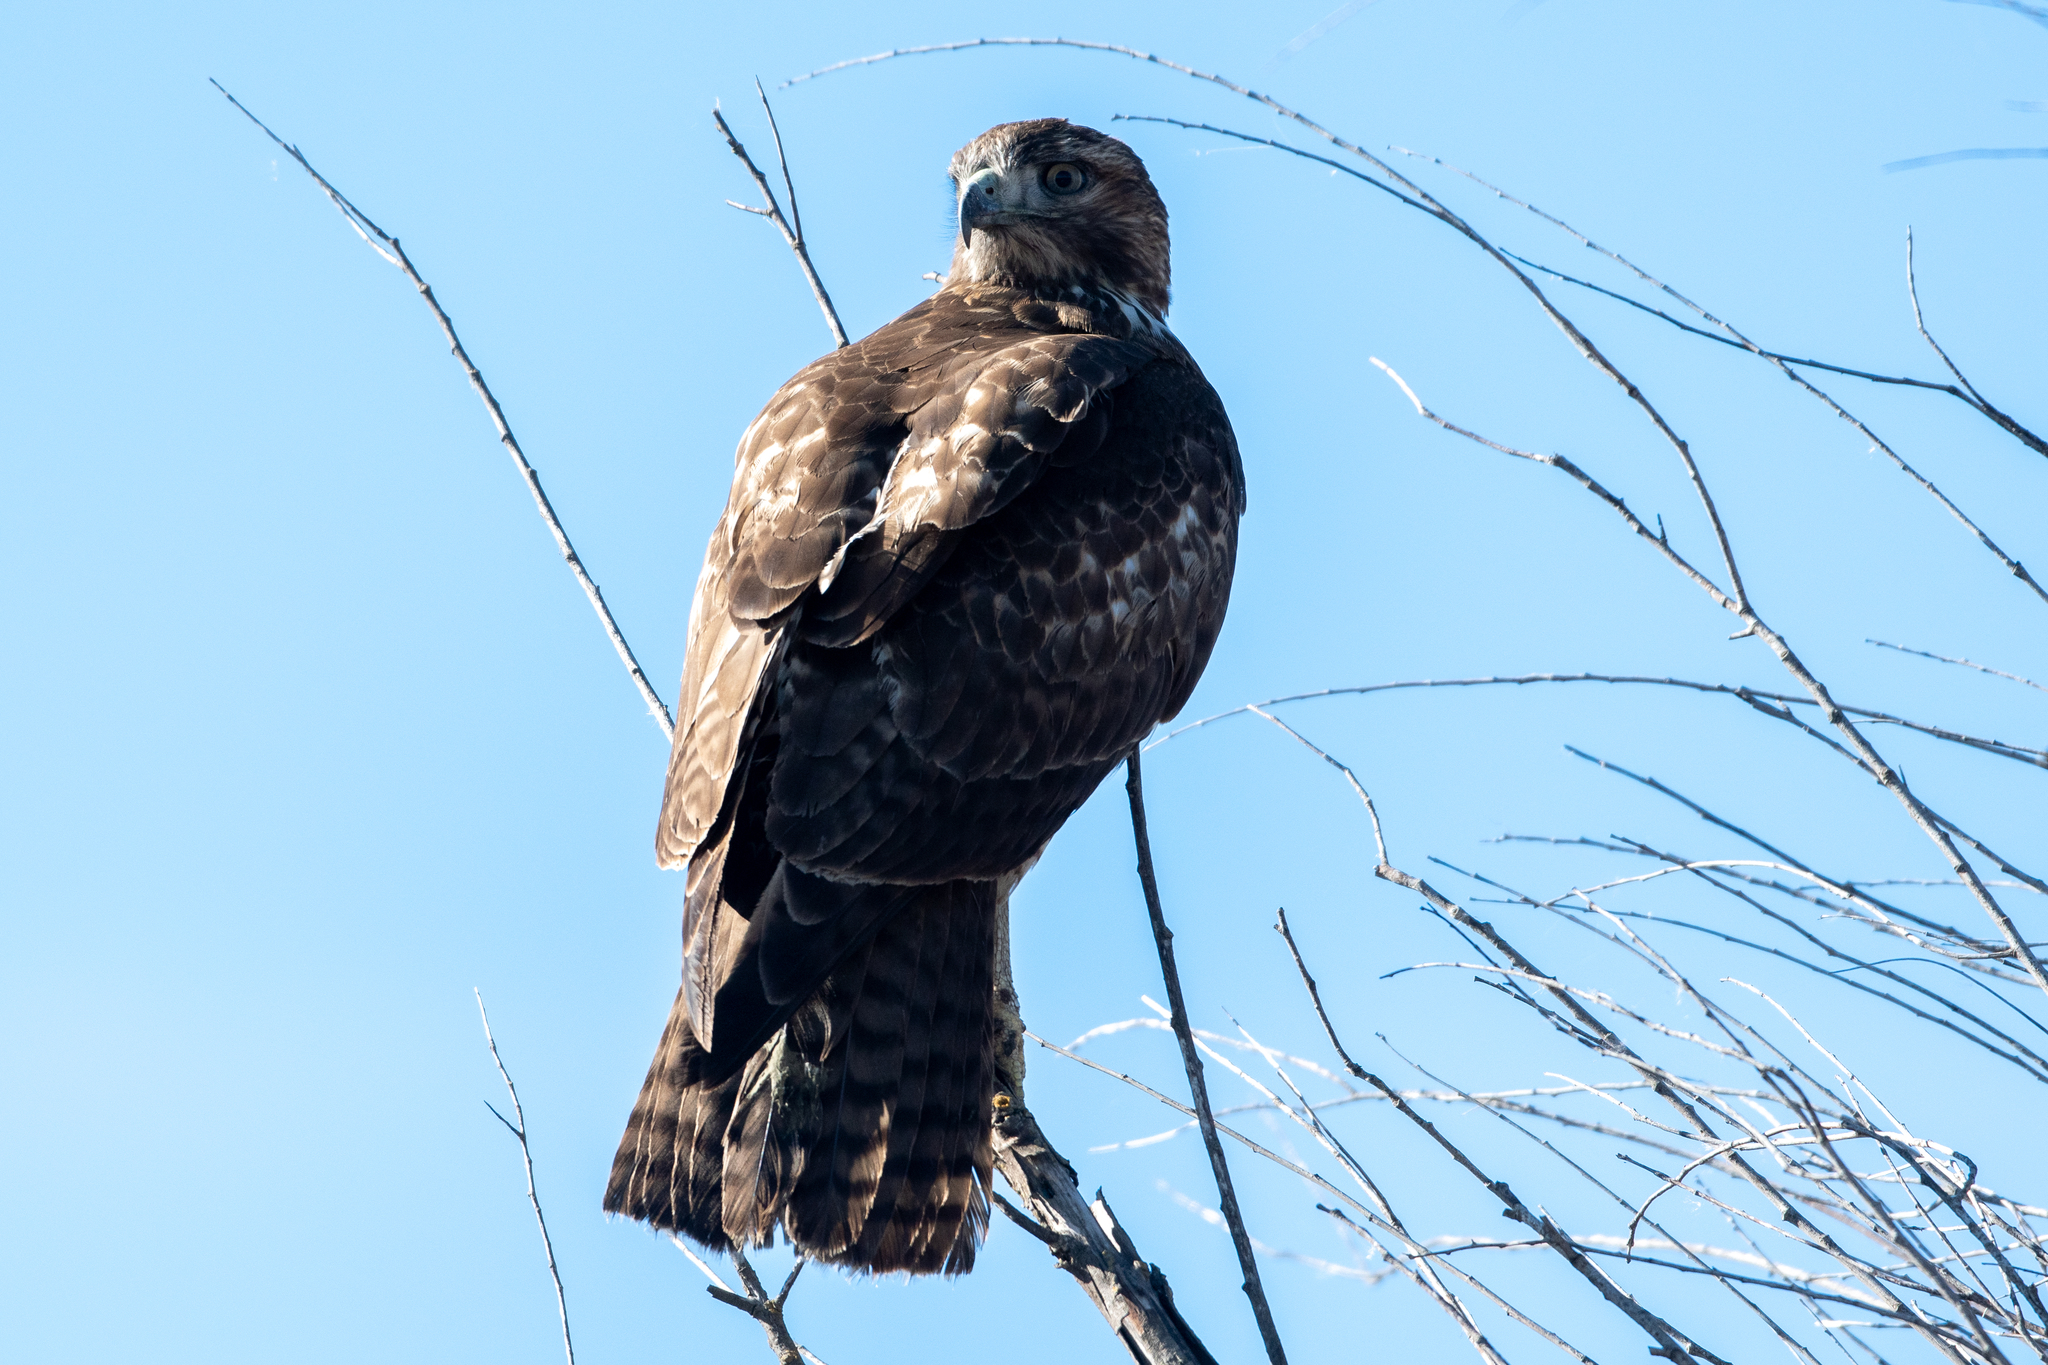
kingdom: Animalia
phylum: Chordata
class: Aves
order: Accipitriformes
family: Accipitridae
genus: Buteo
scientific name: Buteo jamaicensis
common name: Red-tailed hawk
